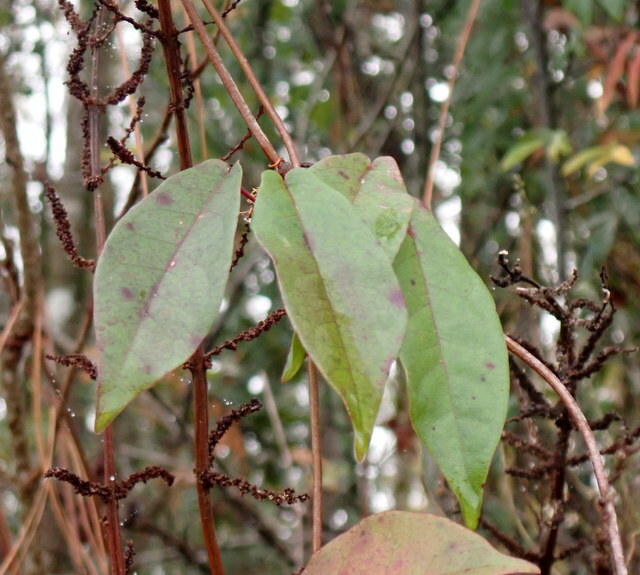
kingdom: Plantae
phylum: Tracheophyta
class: Magnoliopsida
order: Lamiales
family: Bignoniaceae
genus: Bignonia
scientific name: Bignonia capreolata
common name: Crossvine
